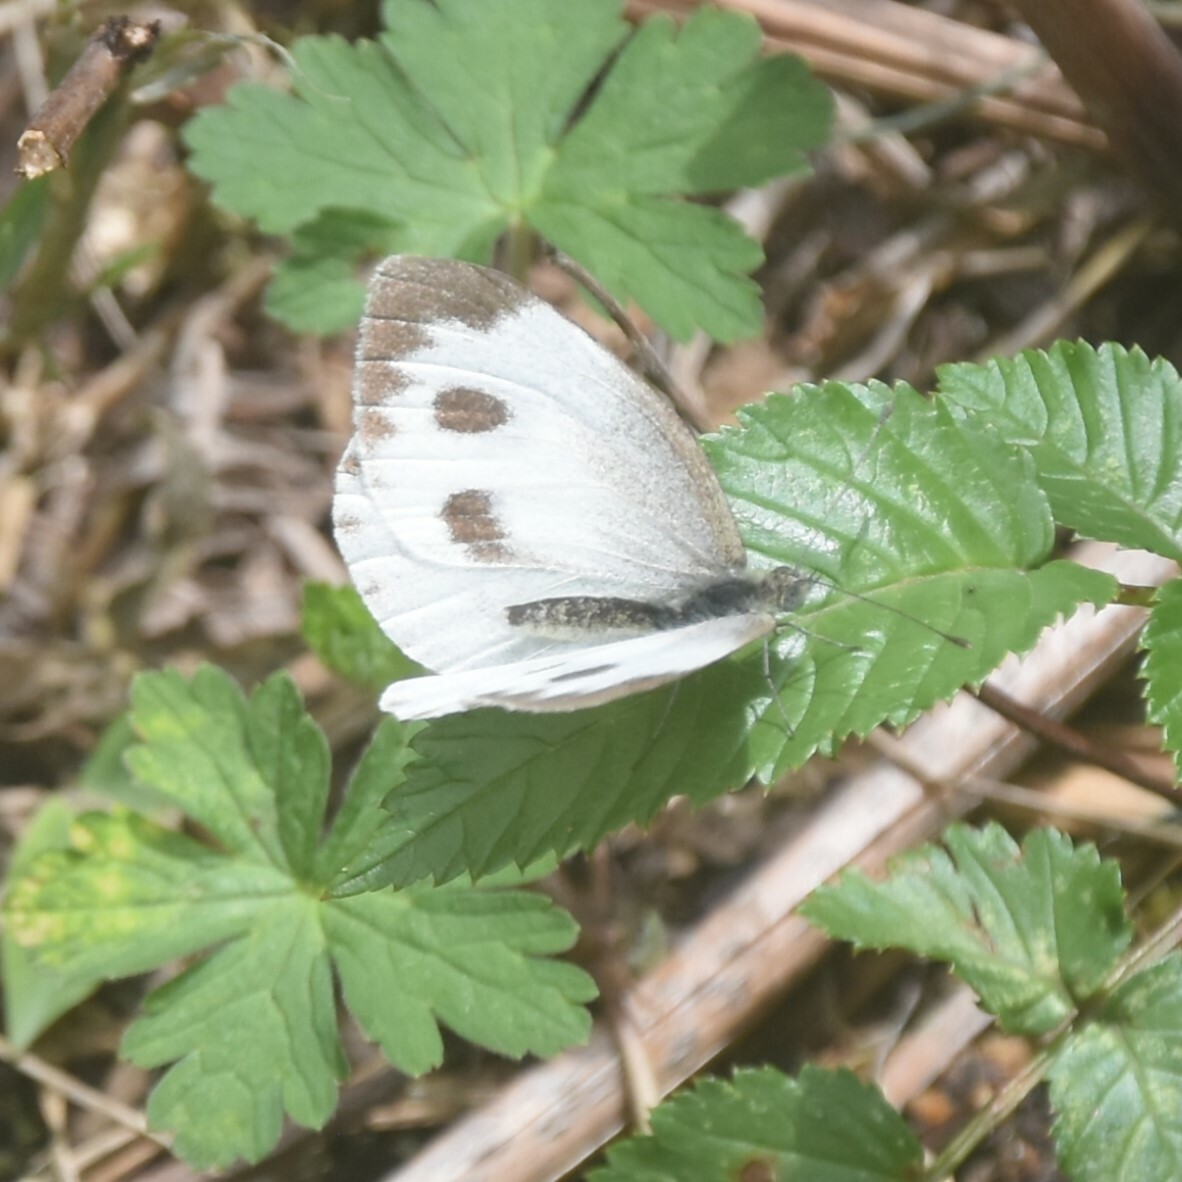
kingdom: Animalia
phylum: Arthropoda
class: Insecta
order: Lepidoptera
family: Pieridae
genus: Pieris
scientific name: Pieris canidia
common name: Indian cabbage white
